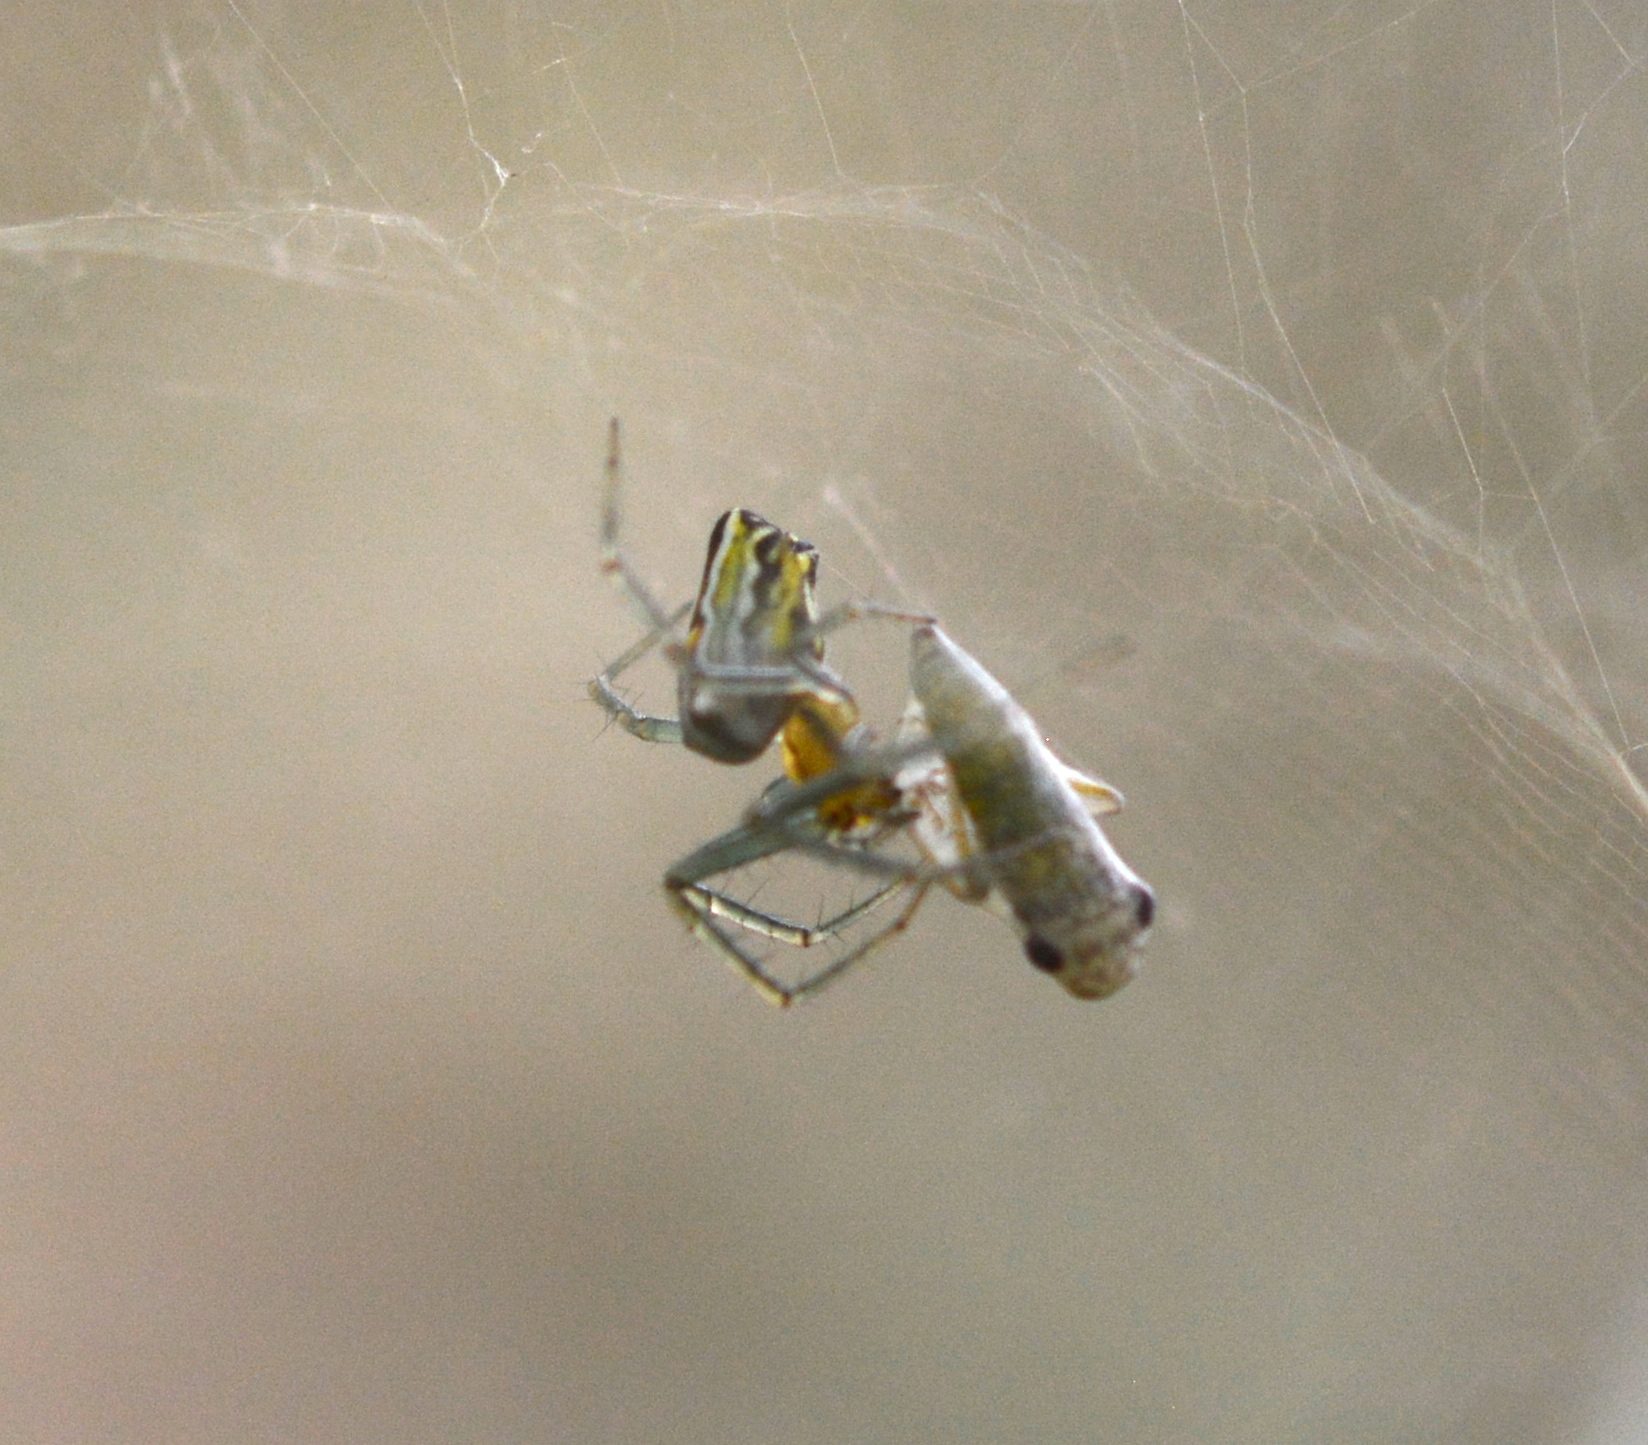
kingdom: Animalia
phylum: Arthropoda
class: Arachnida
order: Araneae
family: Araneidae
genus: Mecynogea
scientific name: Mecynogea lemniscata
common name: Orb weavers
